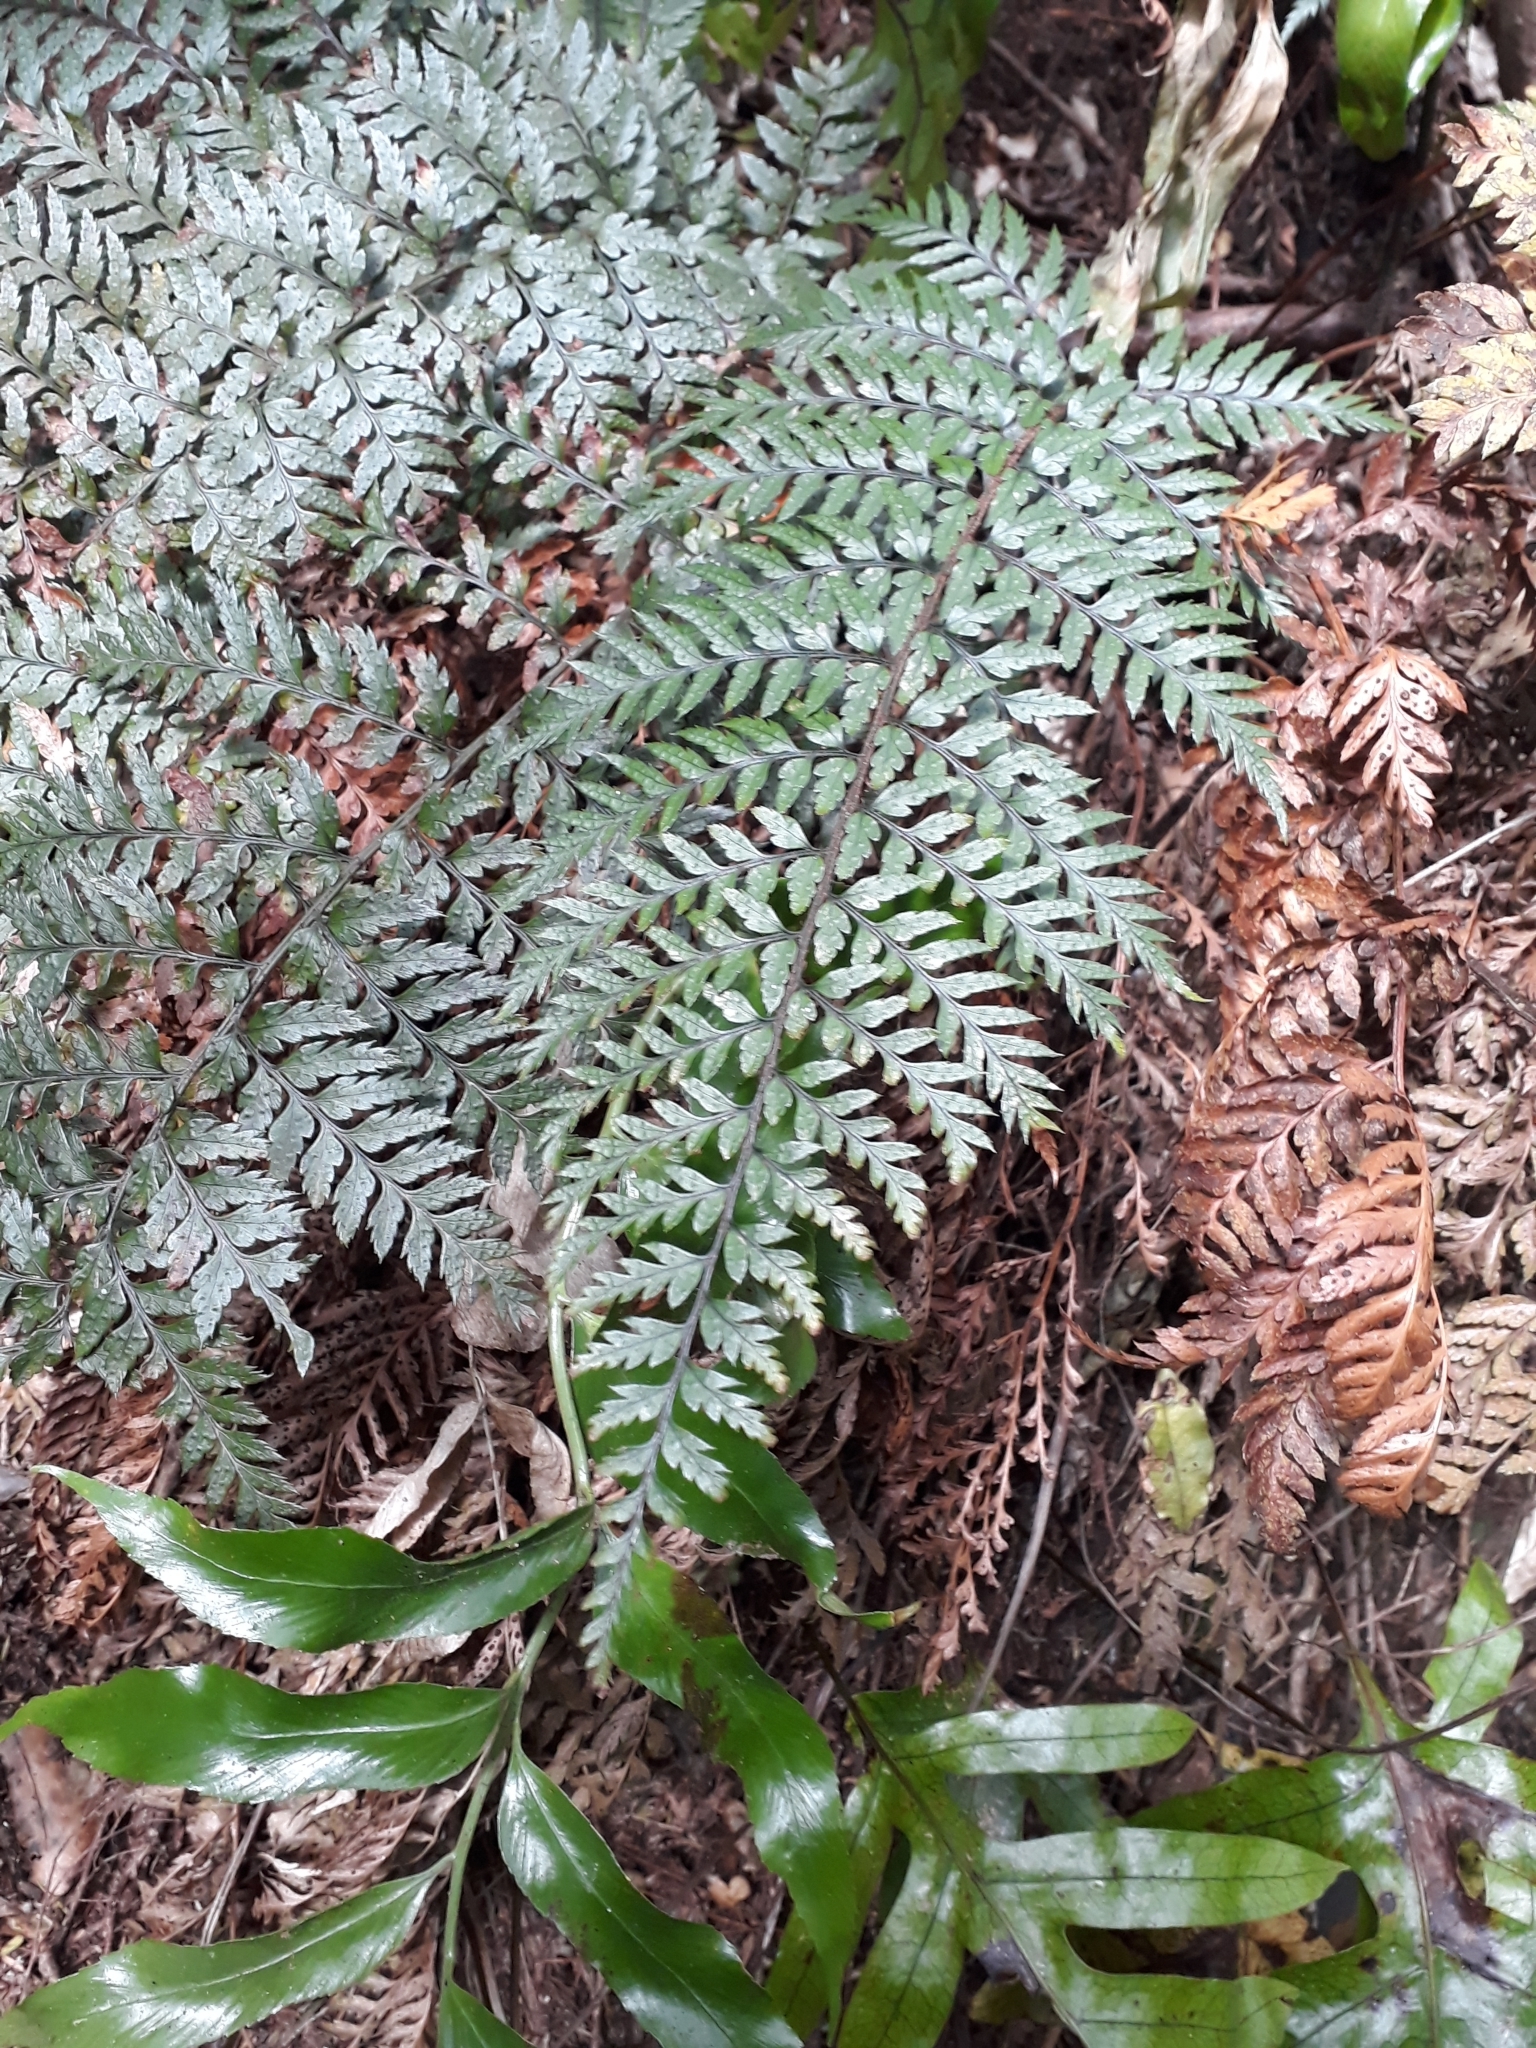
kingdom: Plantae
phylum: Tracheophyta
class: Polypodiopsida
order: Polypodiales
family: Dryopteridaceae
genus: Polystichum
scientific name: Polystichum neozelandicum
